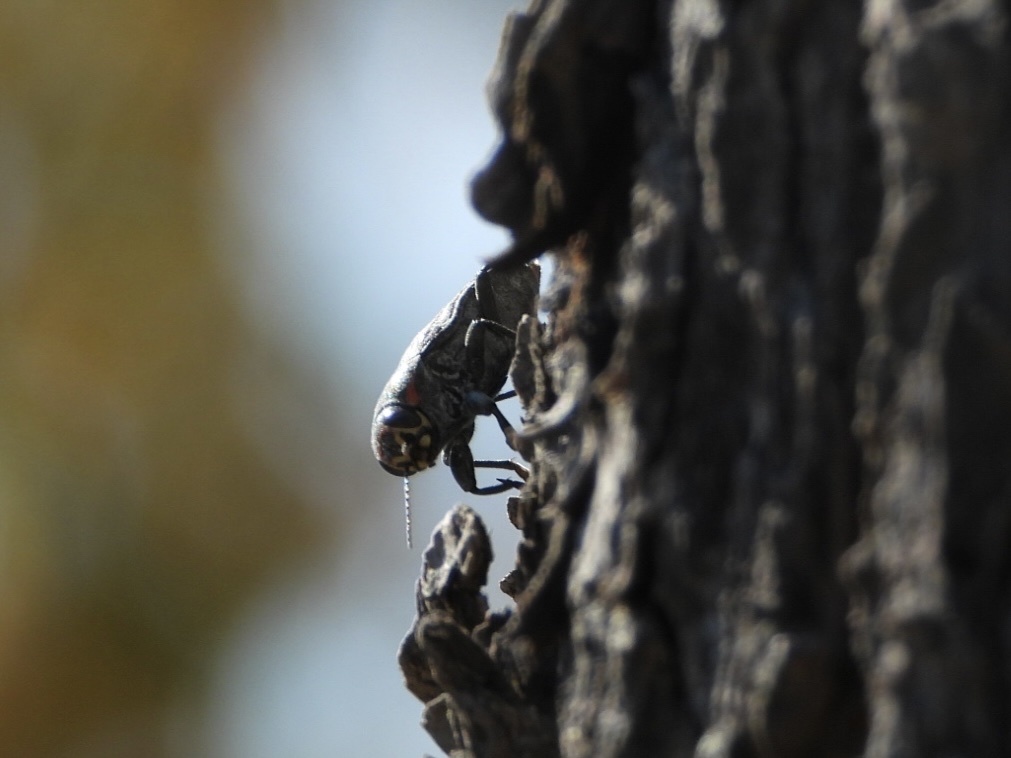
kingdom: Animalia
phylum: Arthropoda
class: Insecta
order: Coleoptera
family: Buprestidae
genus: Buprestis
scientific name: Buprestis lyrata
